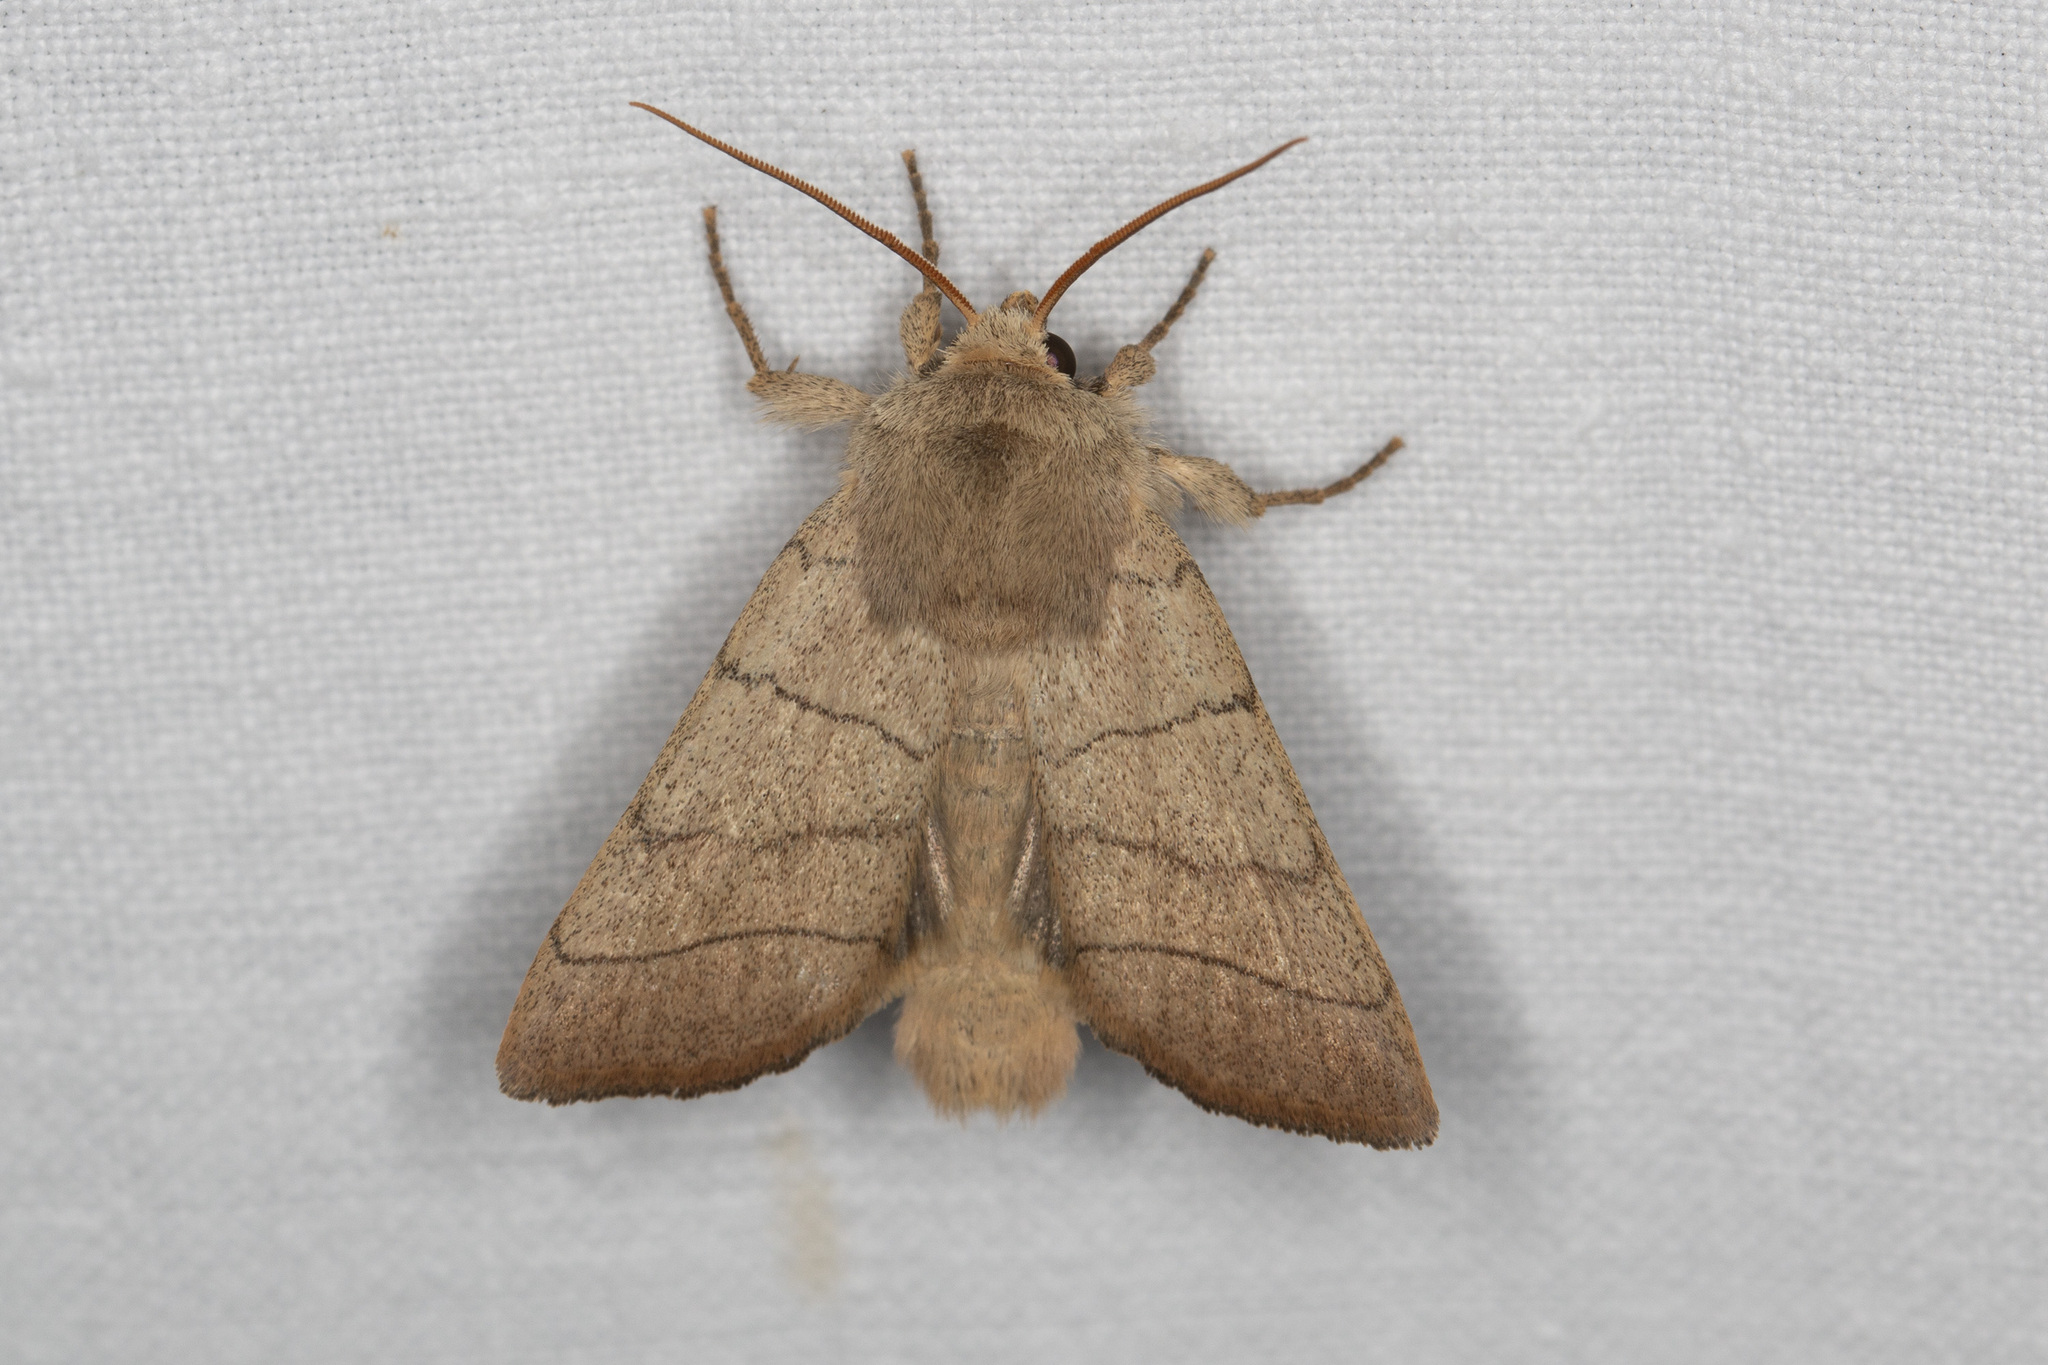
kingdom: Animalia
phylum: Arthropoda
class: Insecta
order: Lepidoptera
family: Noctuidae
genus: Charanyca
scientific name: Charanyca trigrammica
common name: Treble lines
